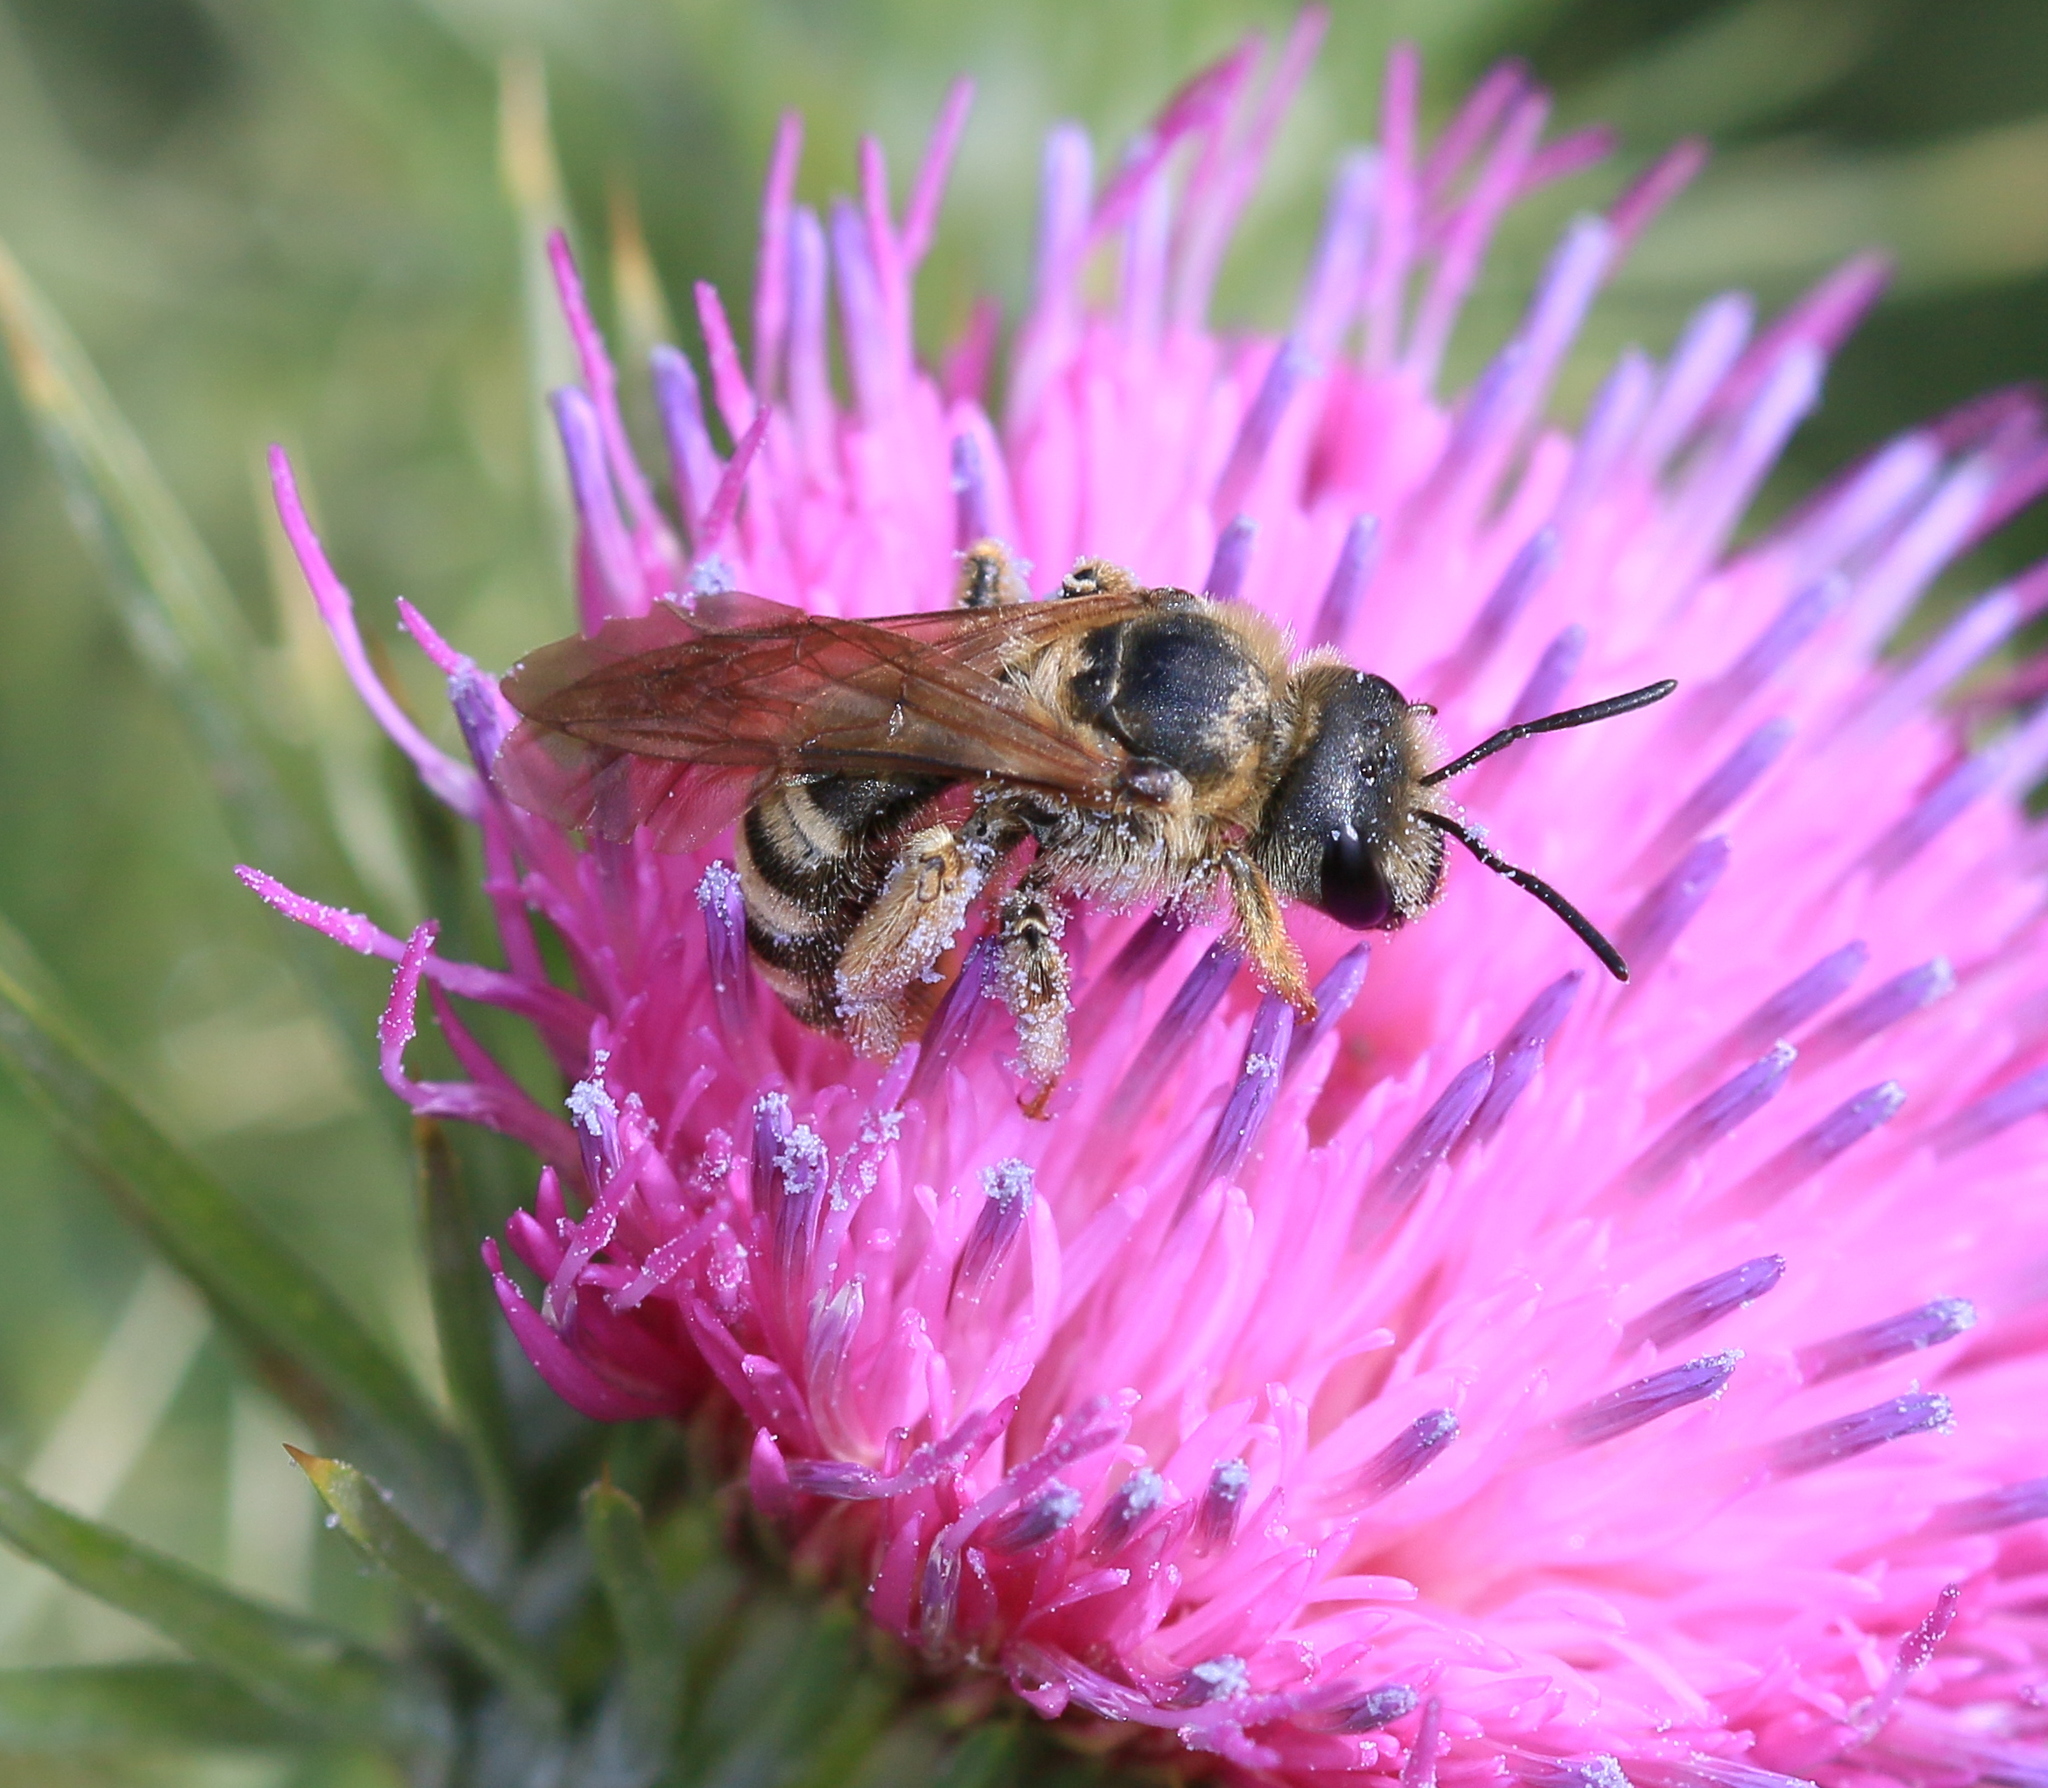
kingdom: Animalia
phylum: Arthropoda
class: Insecta
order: Hymenoptera
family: Halictidae
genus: Halictus
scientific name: Halictus scabiosae
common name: Great banded furrow bee
